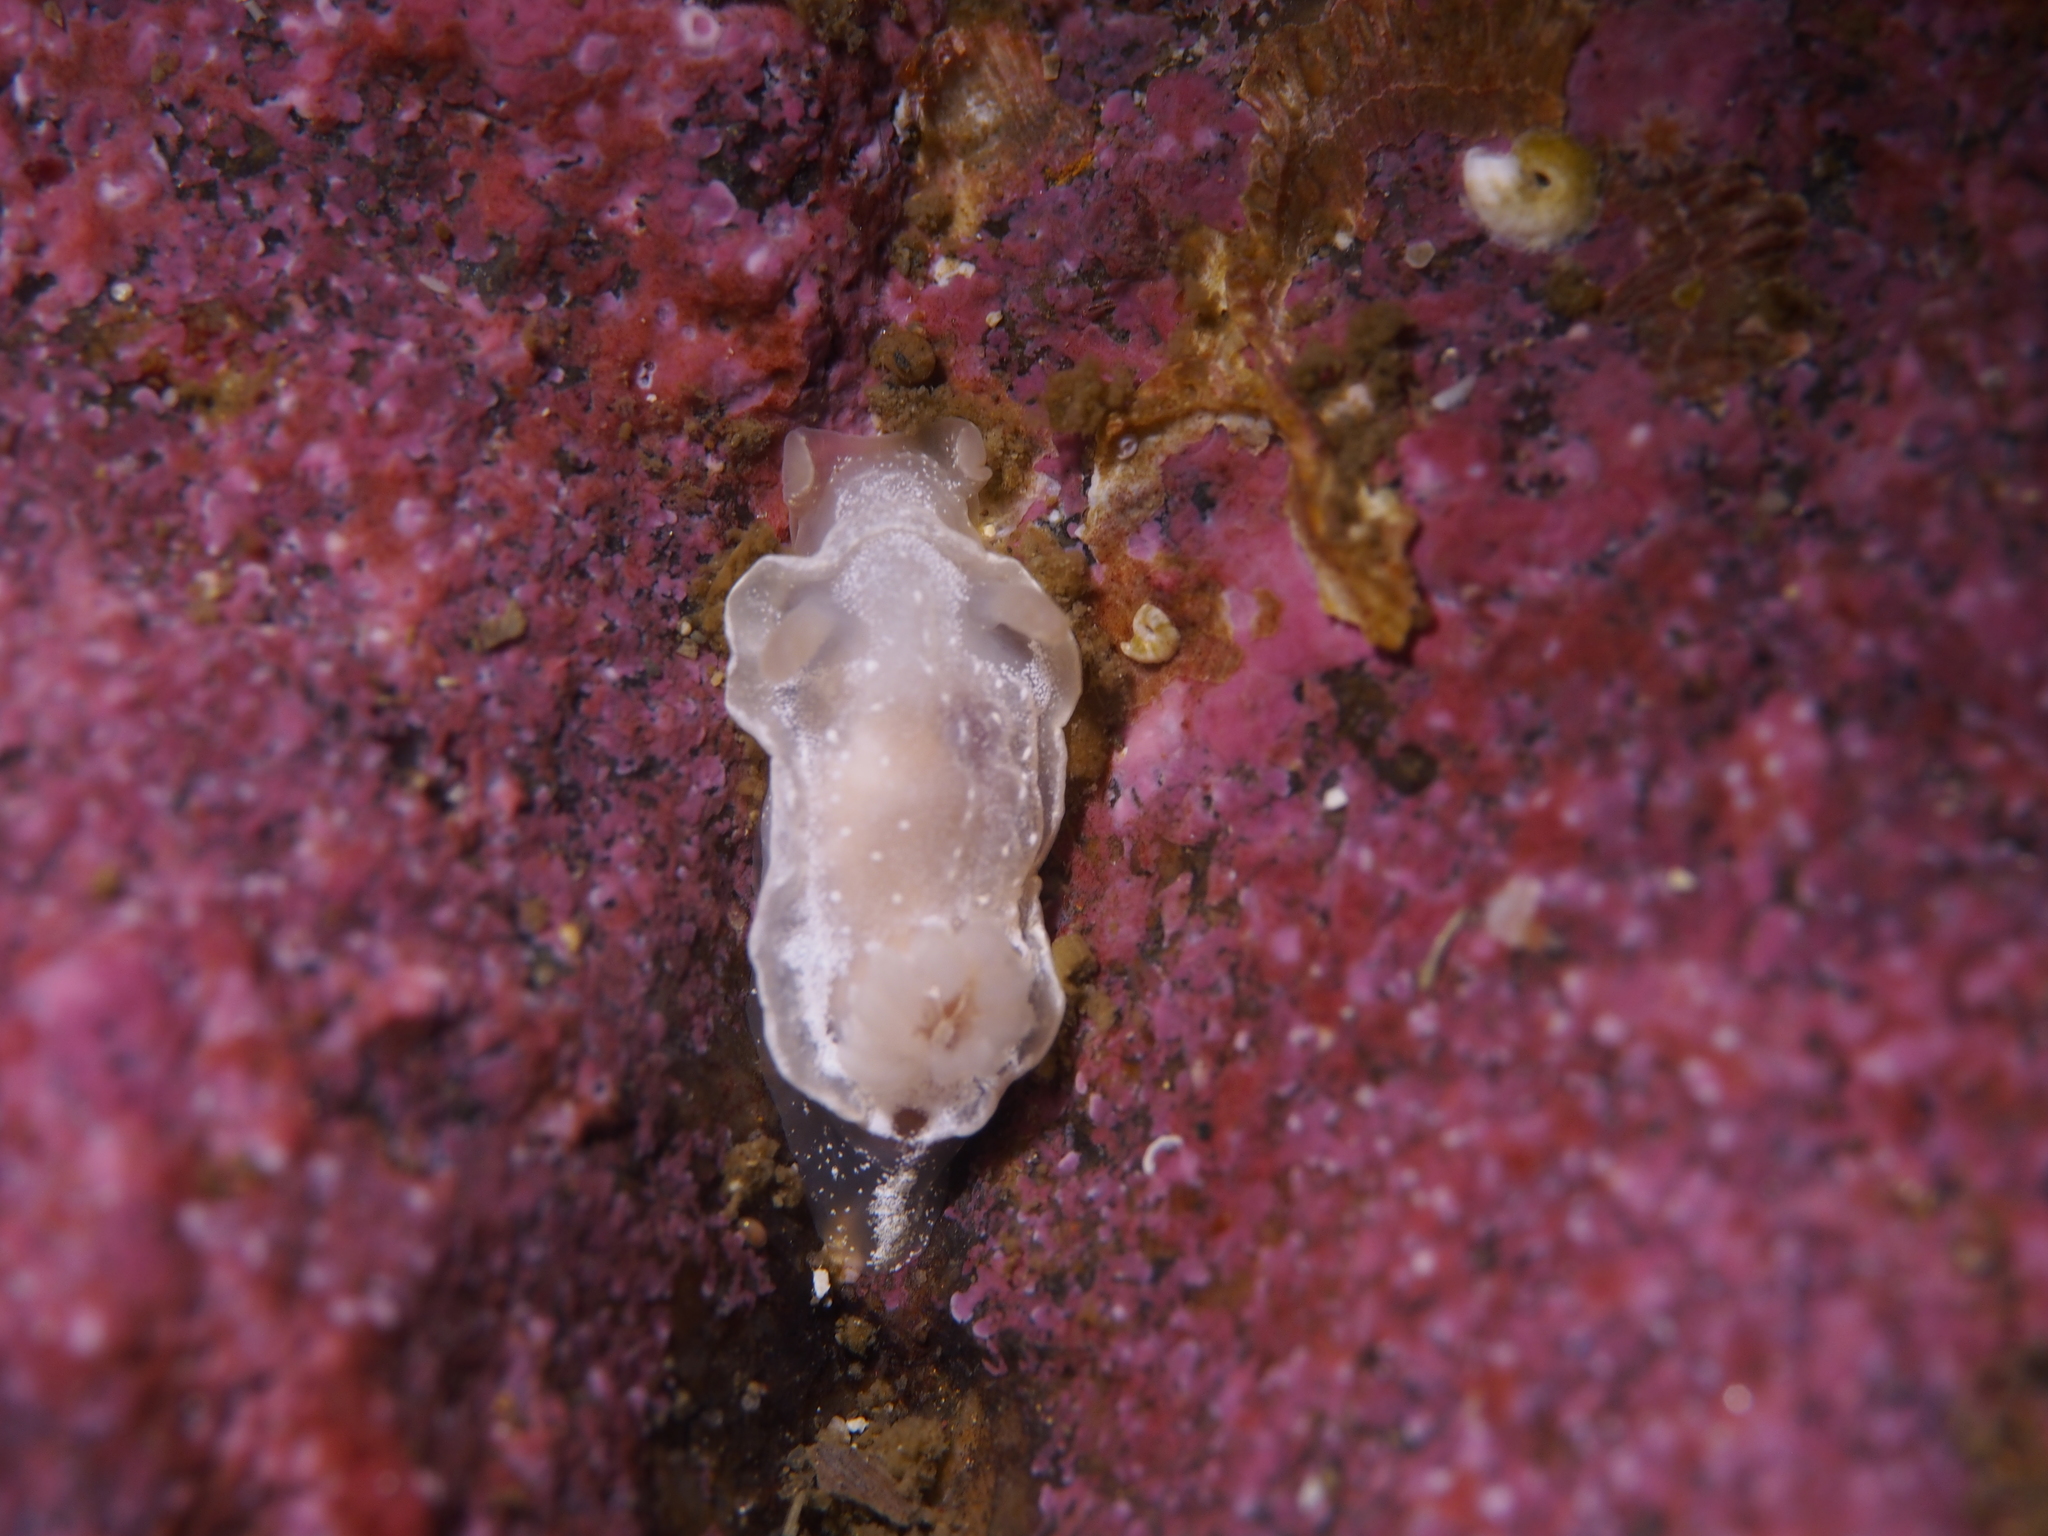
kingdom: Animalia
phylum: Mollusca
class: Gastropoda
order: Nudibranchia
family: Goniodorididae
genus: Okenia
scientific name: Okenia
